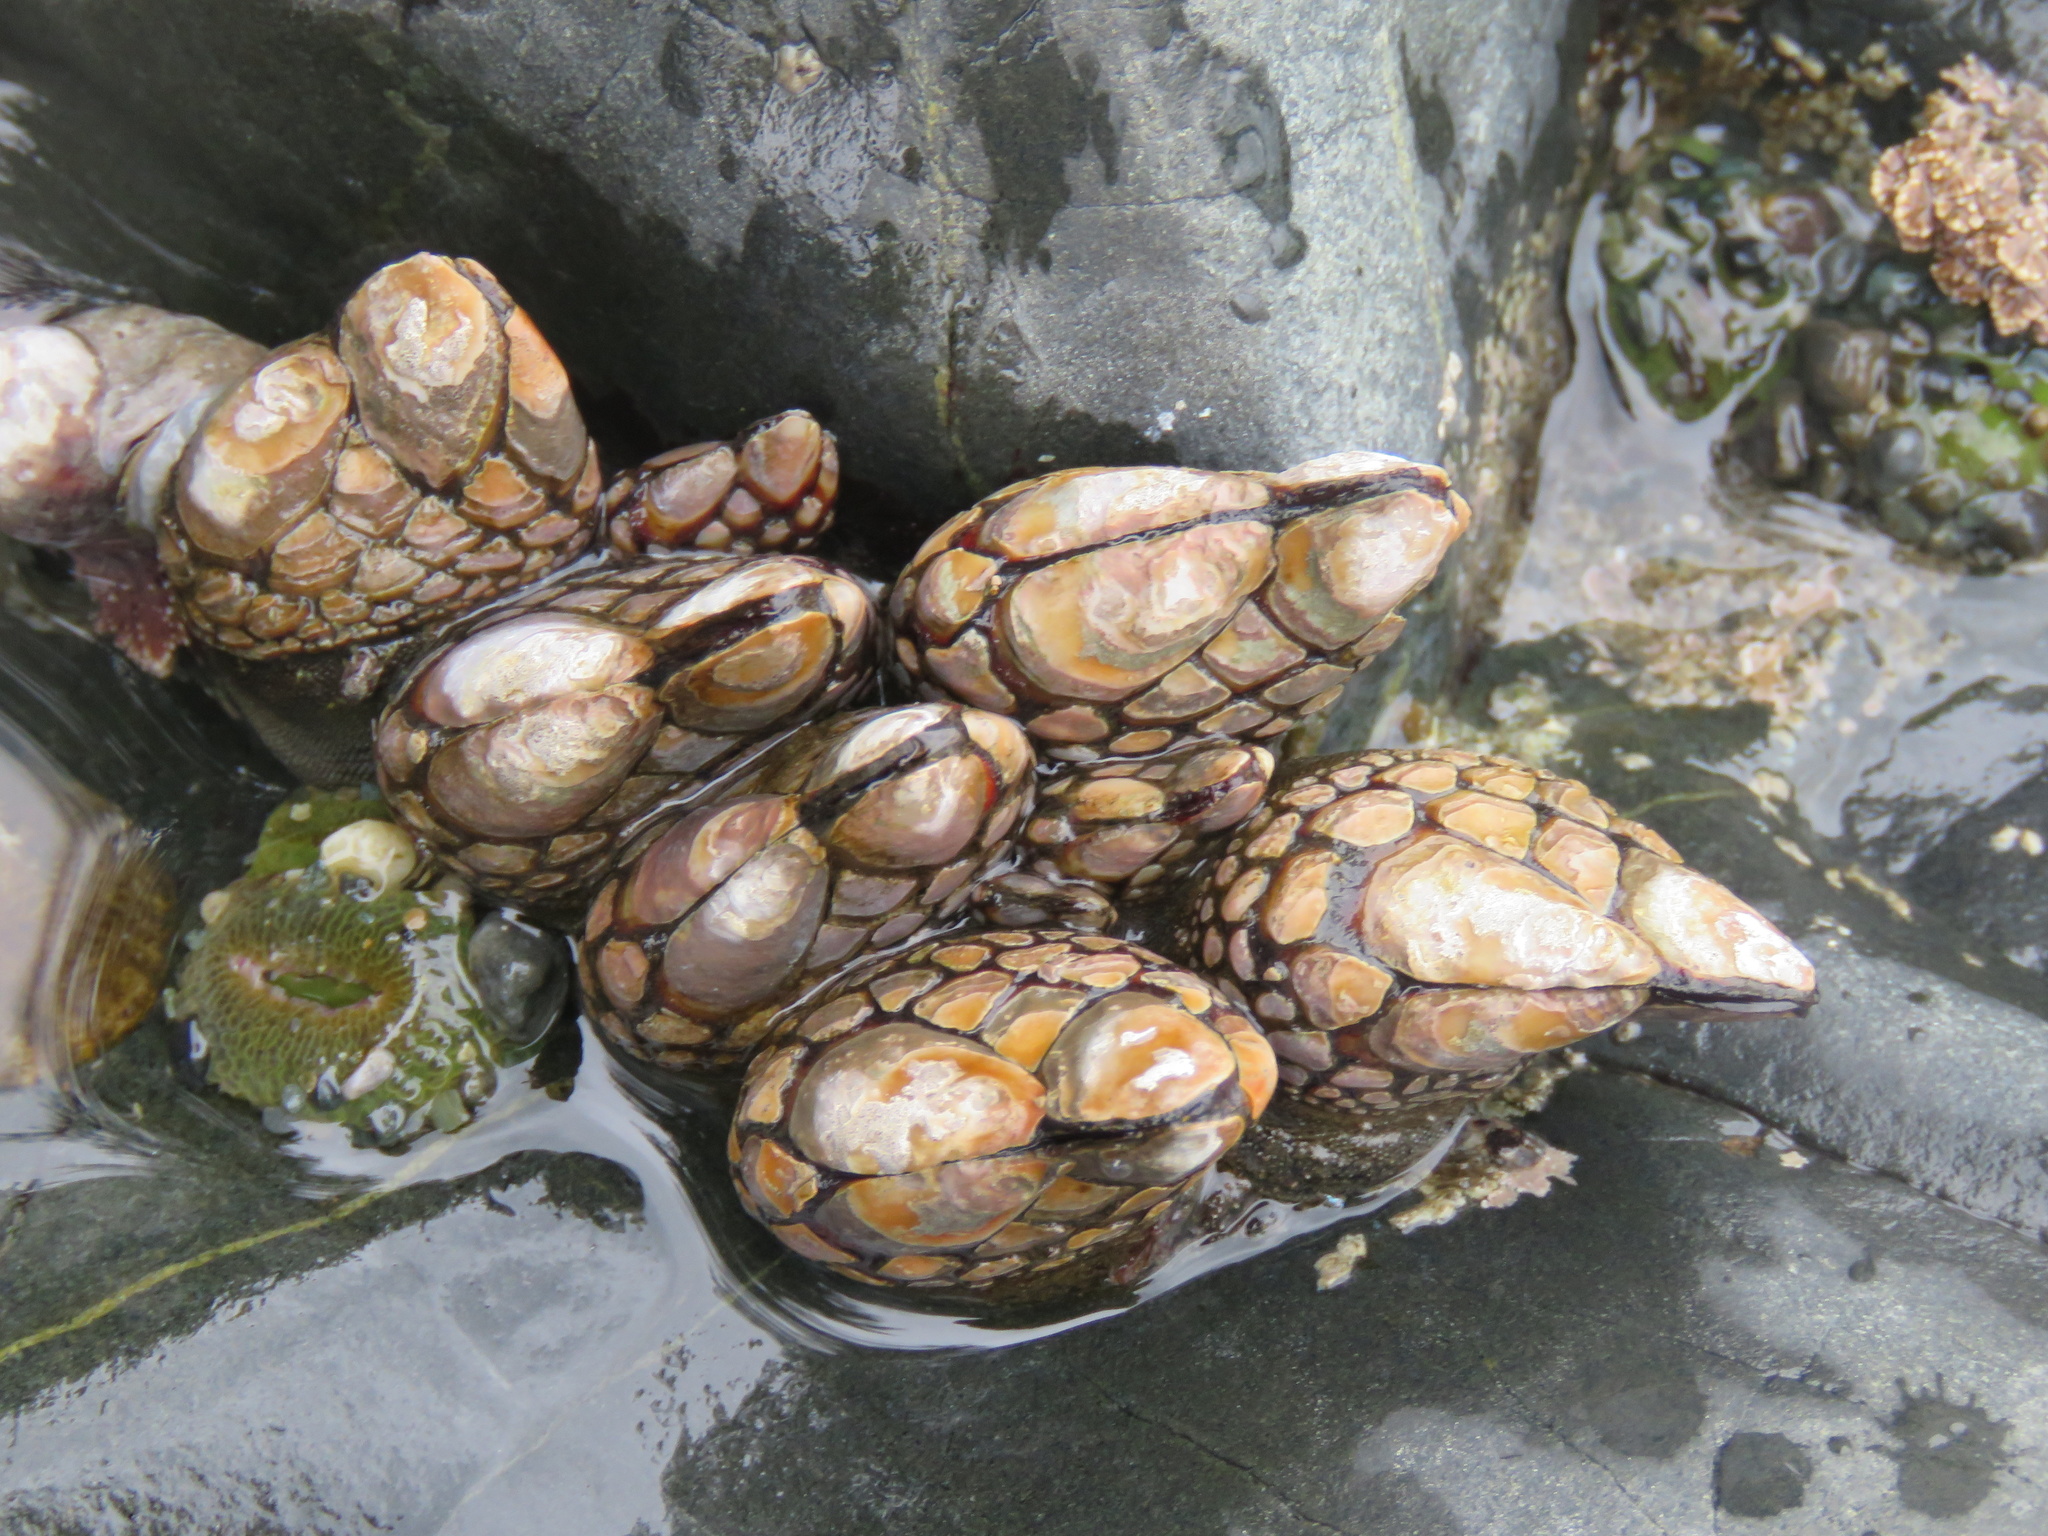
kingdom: Animalia
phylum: Arthropoda
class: Maxillopoda
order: Pedunculata
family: Pollicipedidae
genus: Pollicipes
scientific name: Pollicipes polymerus
